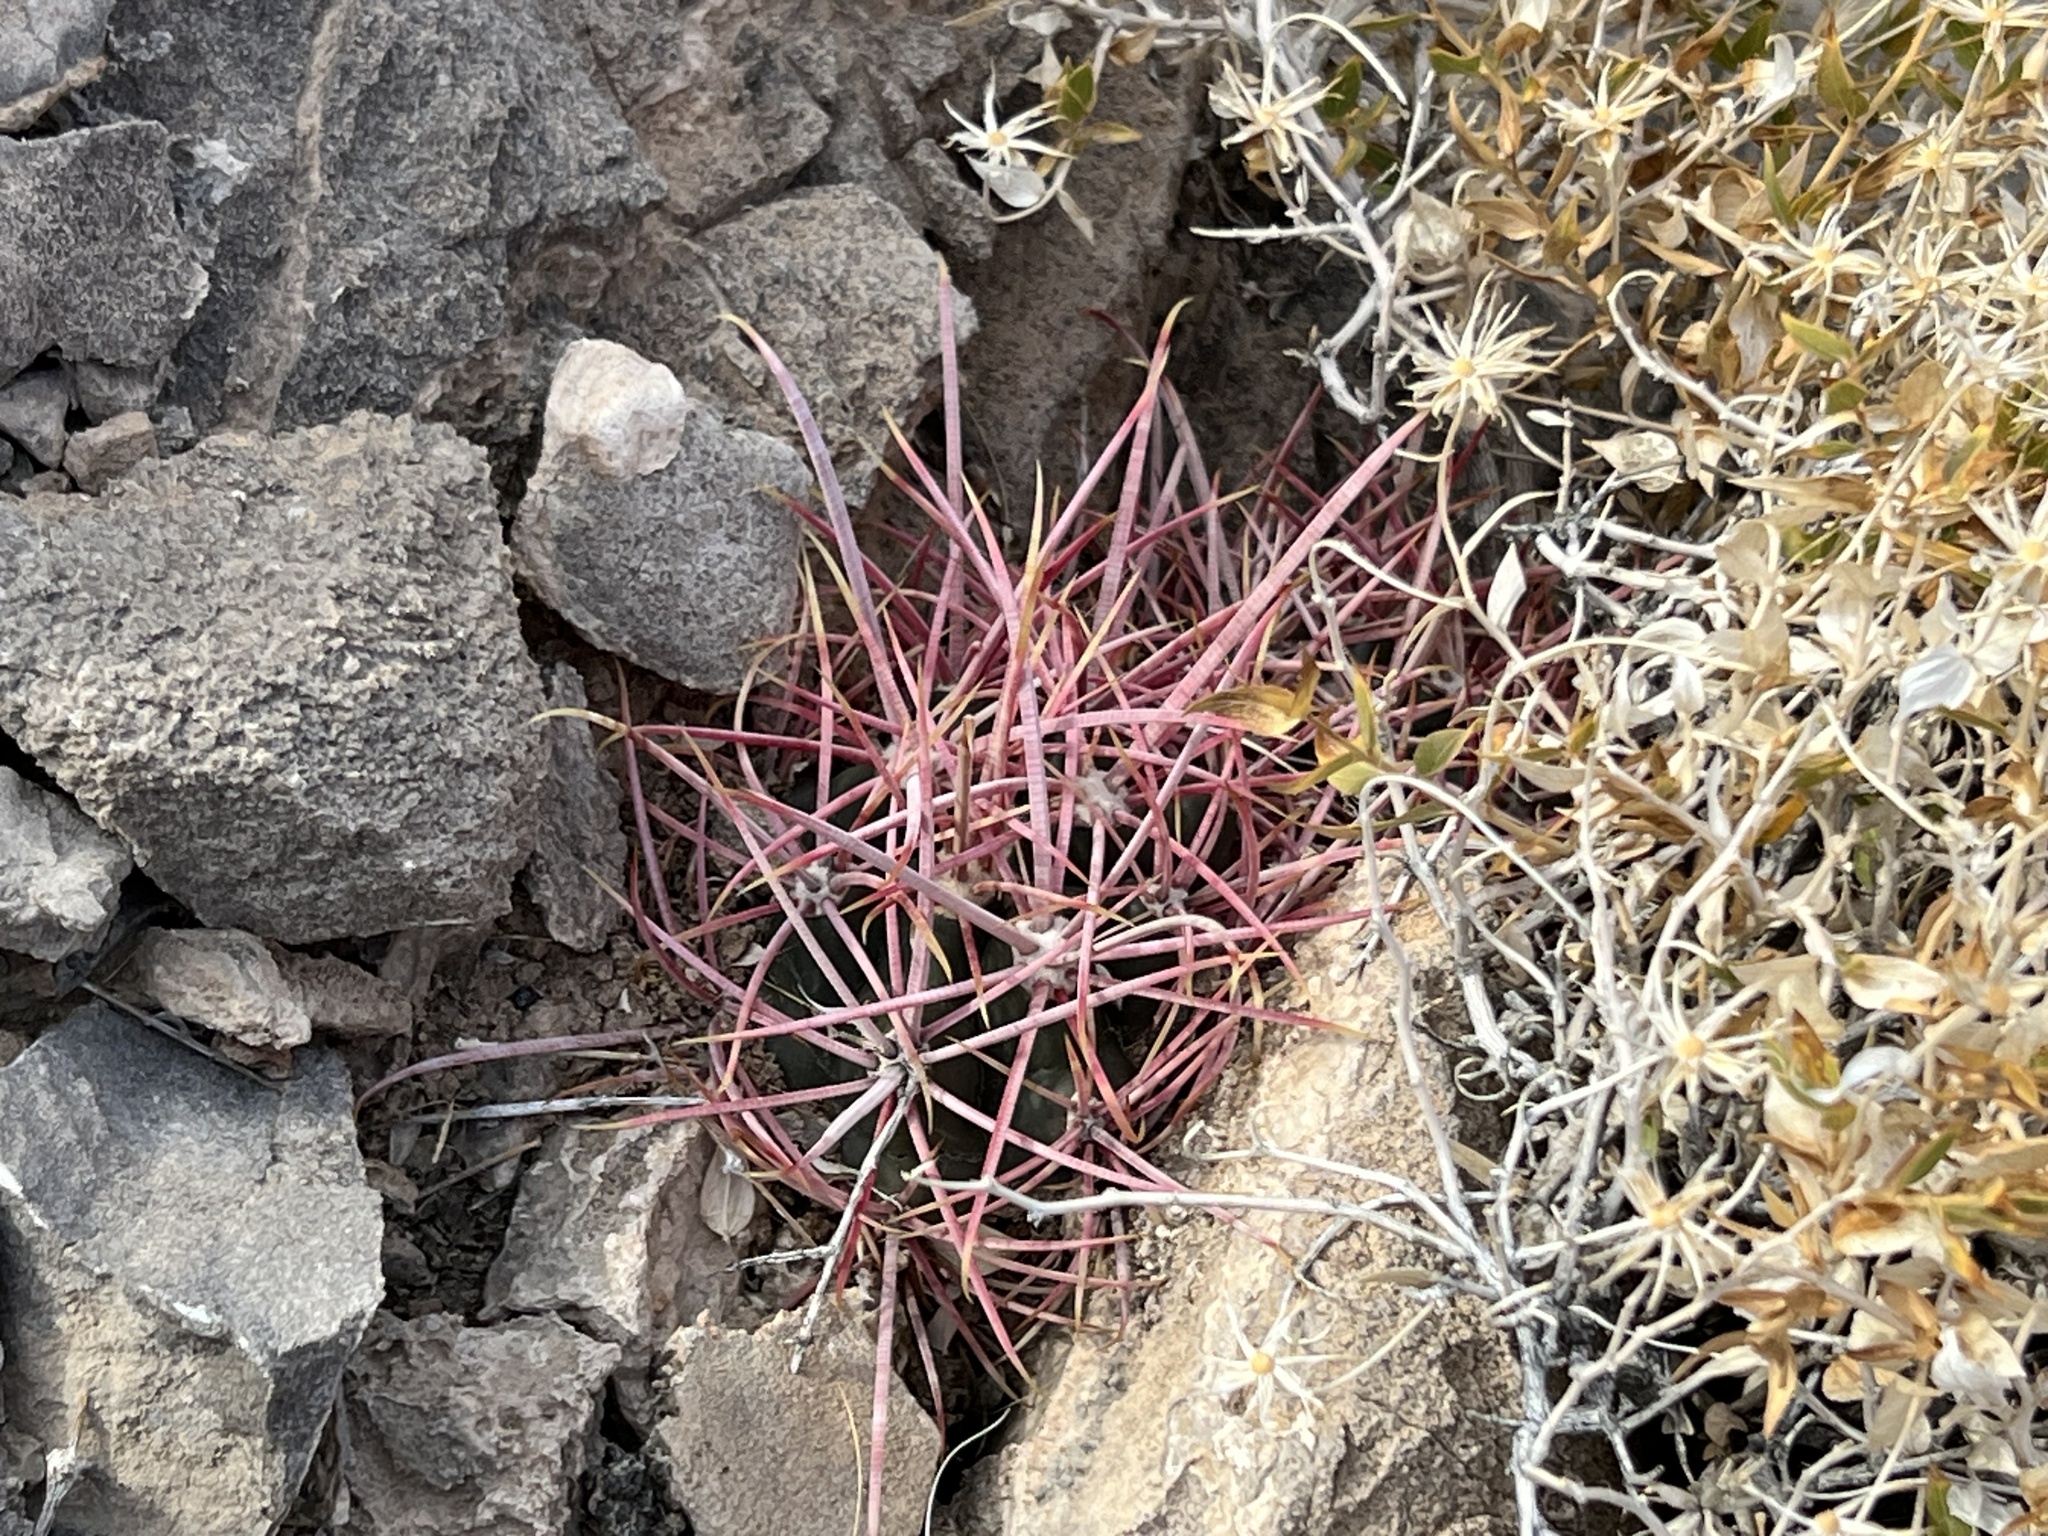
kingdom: Plantae
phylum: Tracheophyta
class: Magnoliopsida
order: Caryophyllales
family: Cactaceae
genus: Ferocactus
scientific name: Ferocactus cylindraceus
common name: California barrel cactus
